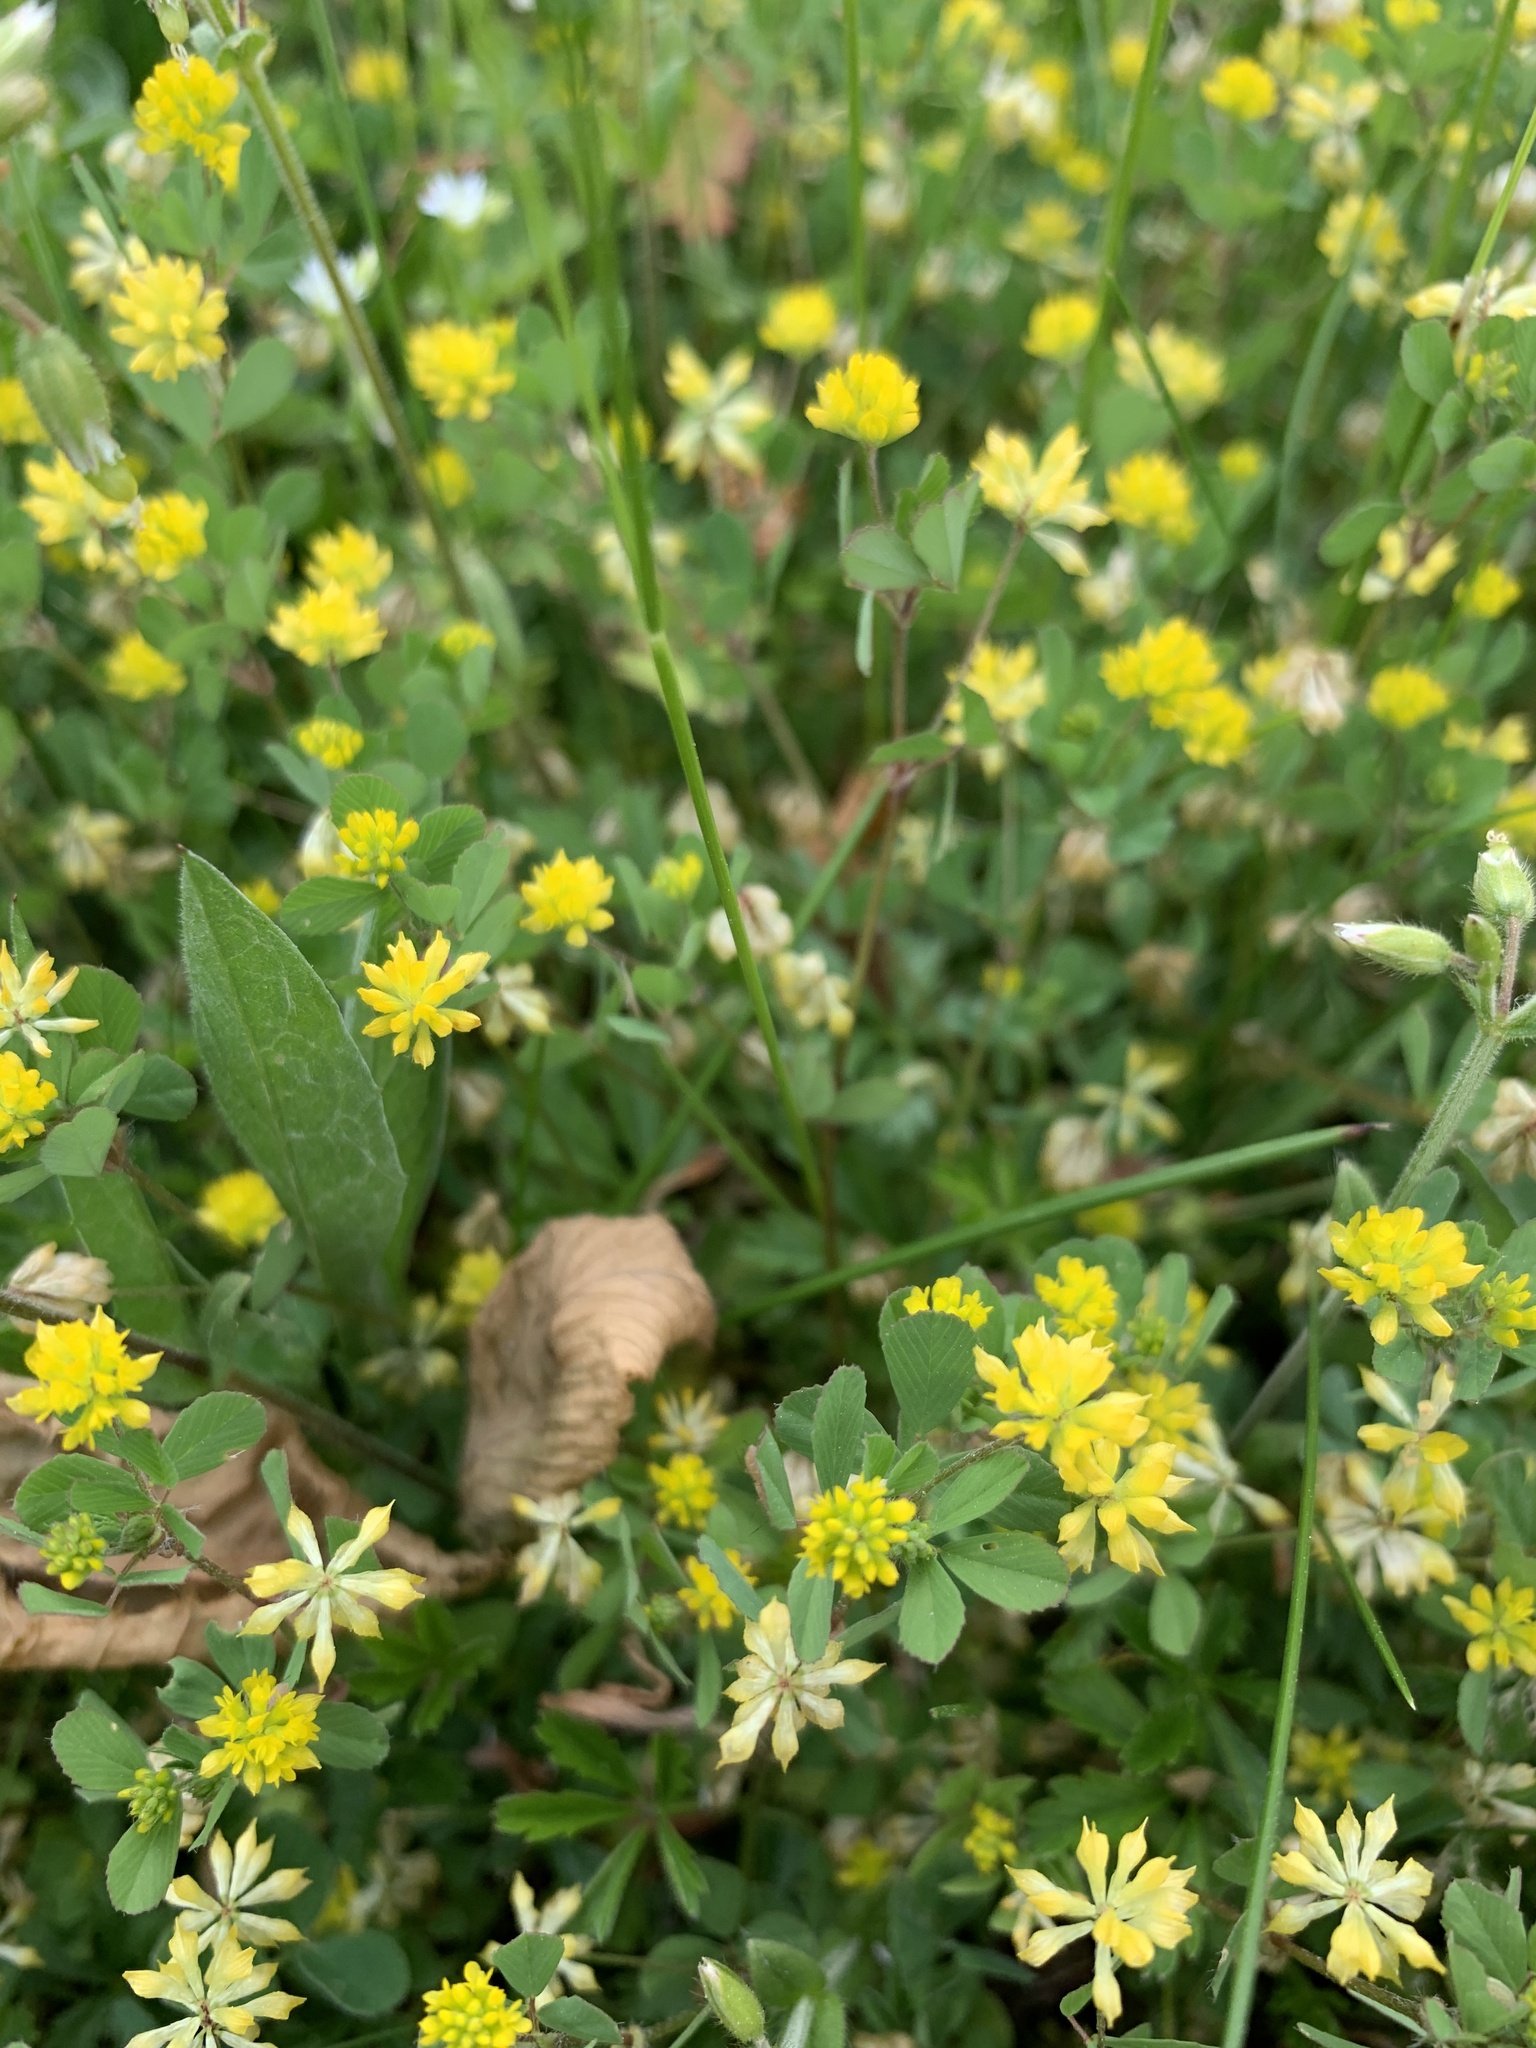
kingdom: Plantae
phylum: Tracheophyta
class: Magnoliopsida
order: Fabales
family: Fabaceae
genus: Trifolium
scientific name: Trifolium dubium
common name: Suckling clover
